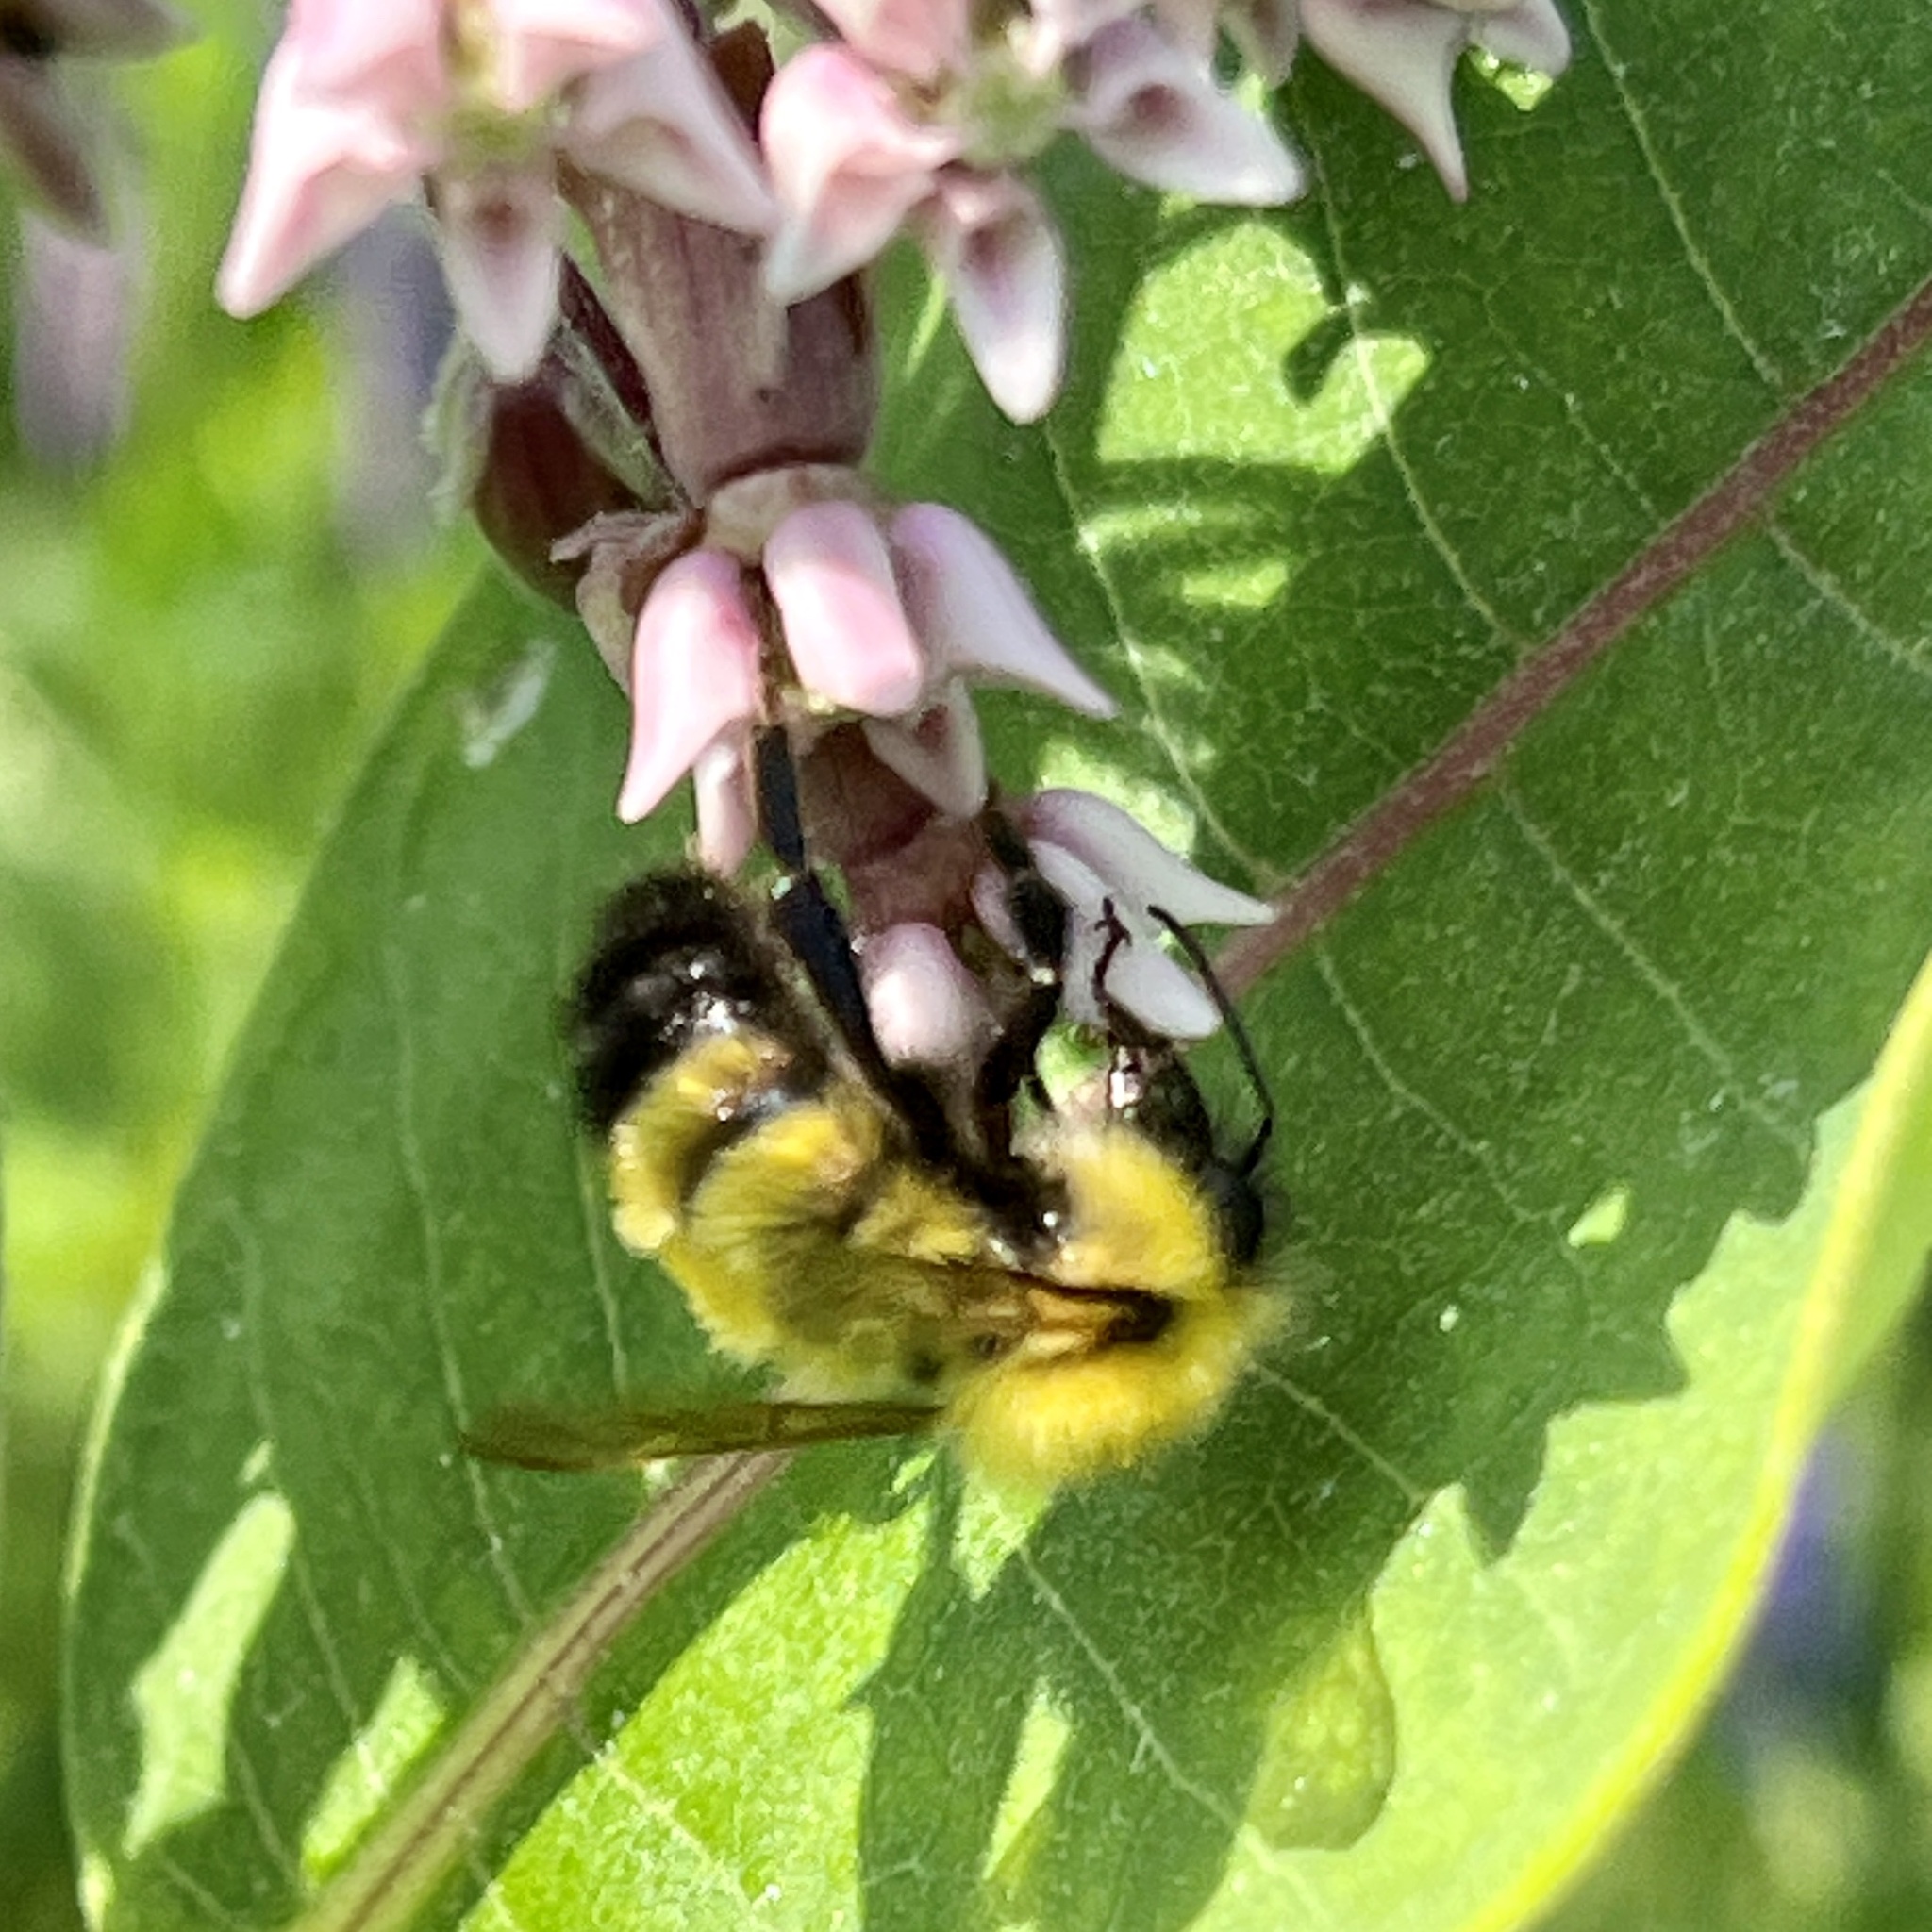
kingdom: Animalia
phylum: Arthropoda
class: Insecta
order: Hymenoptera
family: Apidae
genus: Bombus
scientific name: Bombus perplexus
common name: Confusing bumble bee
